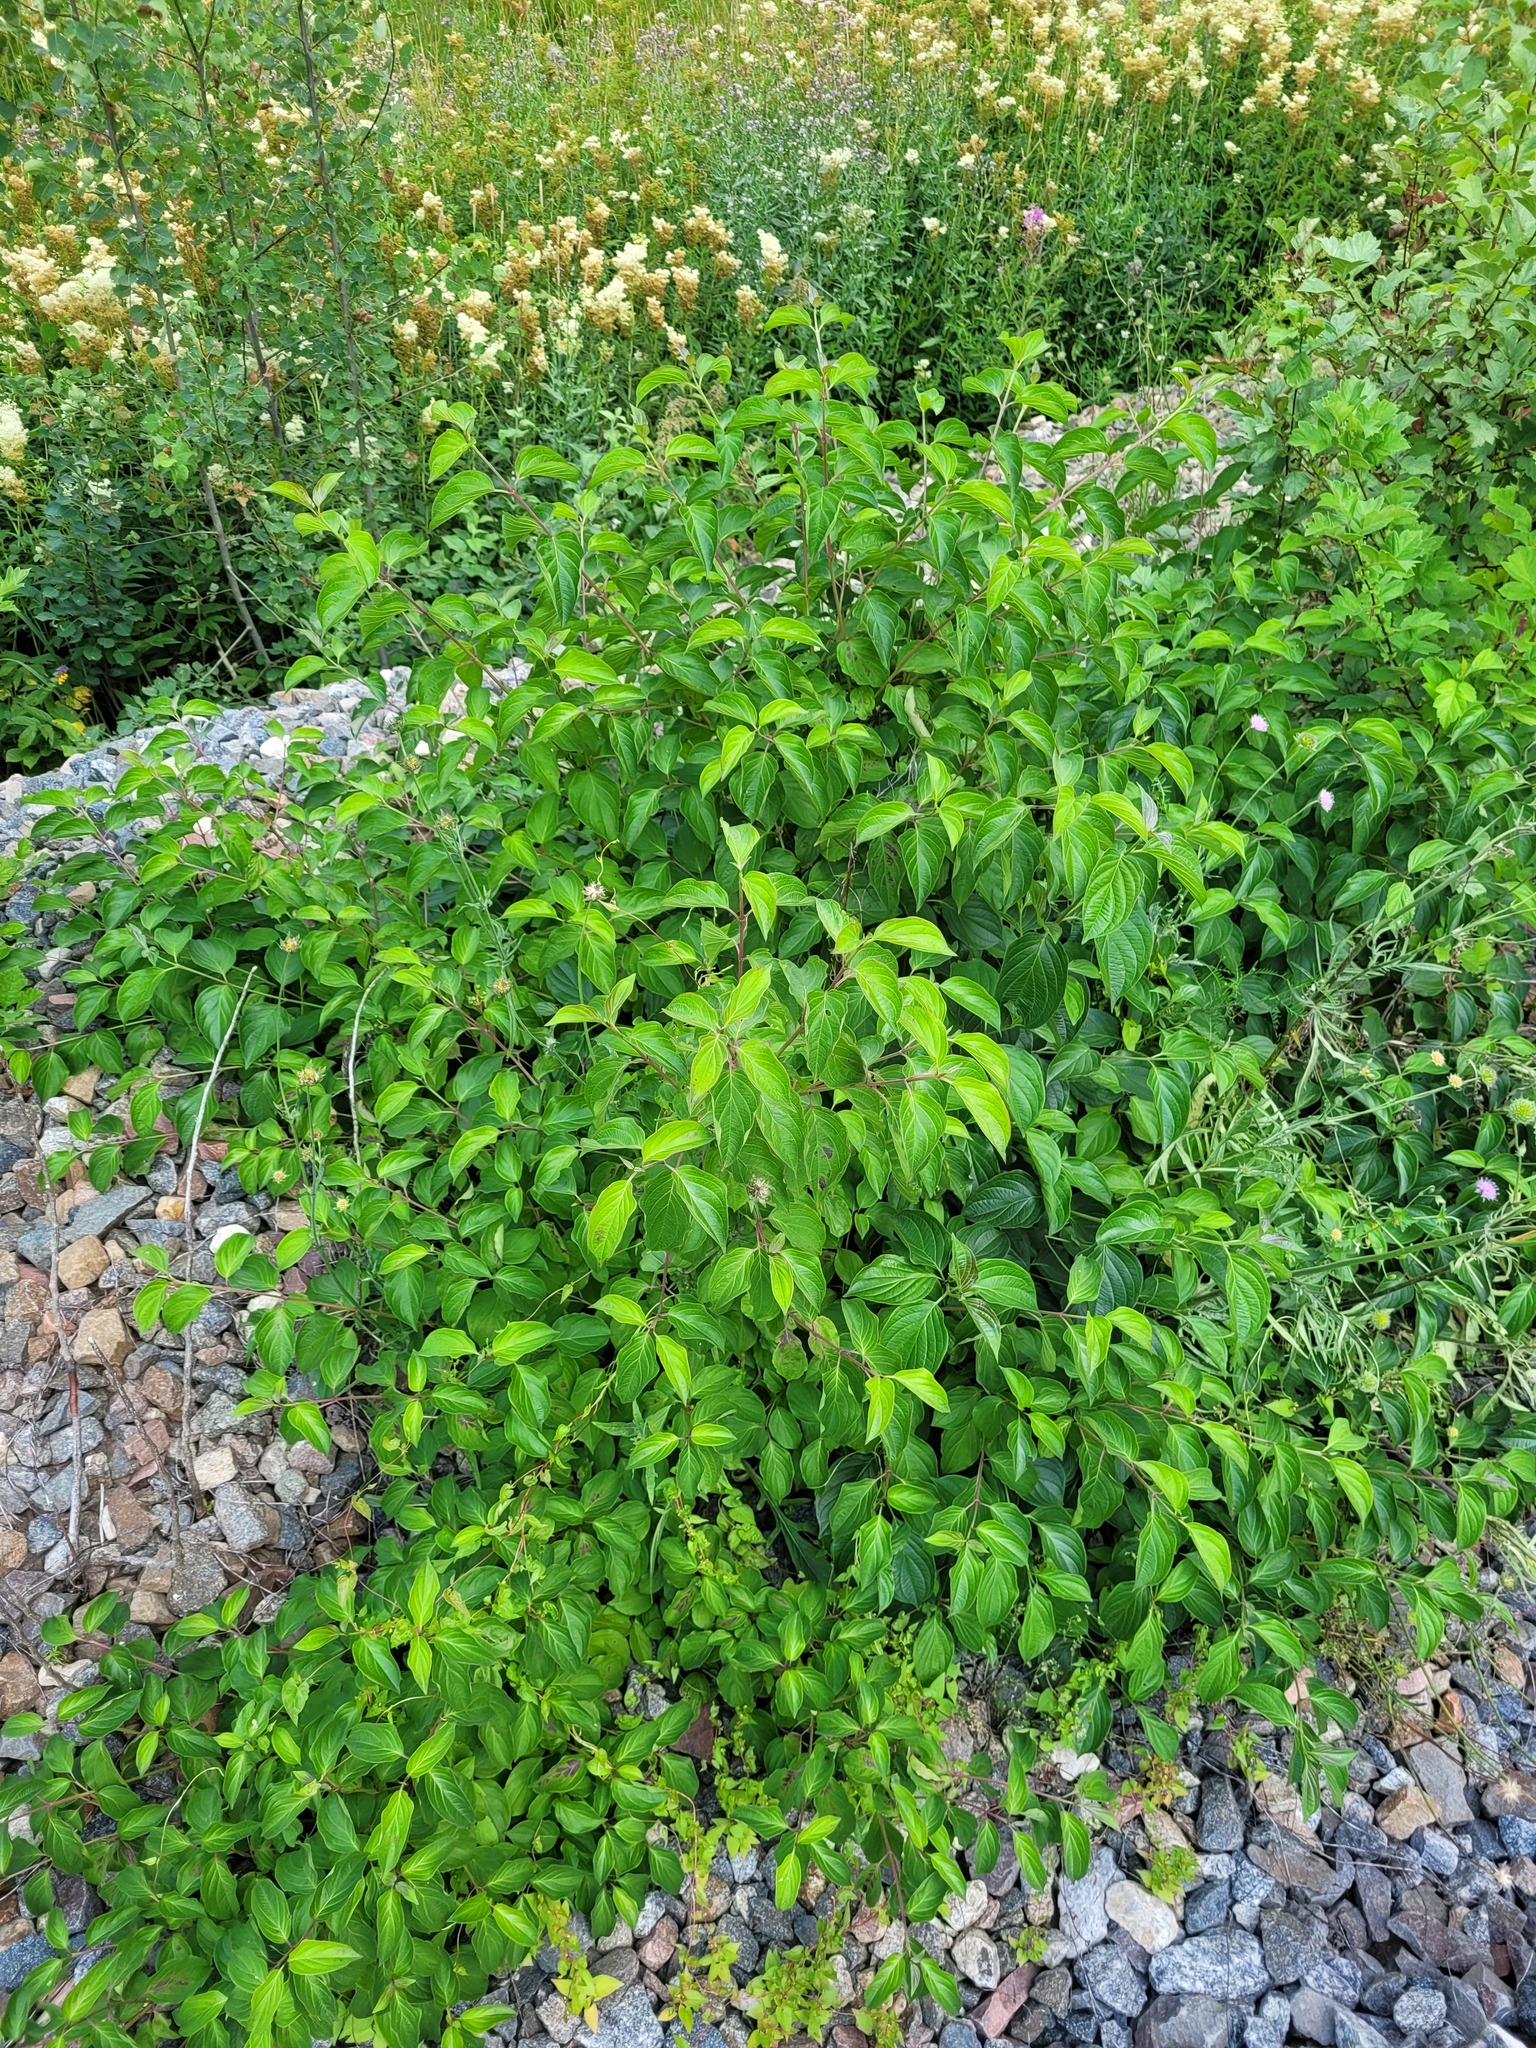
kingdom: Plantae
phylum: Tracheophyta
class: Magnoliopsida
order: Cornales
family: Cornaceae
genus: Cornus
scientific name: Cornus sanguinea
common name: Dogwood
